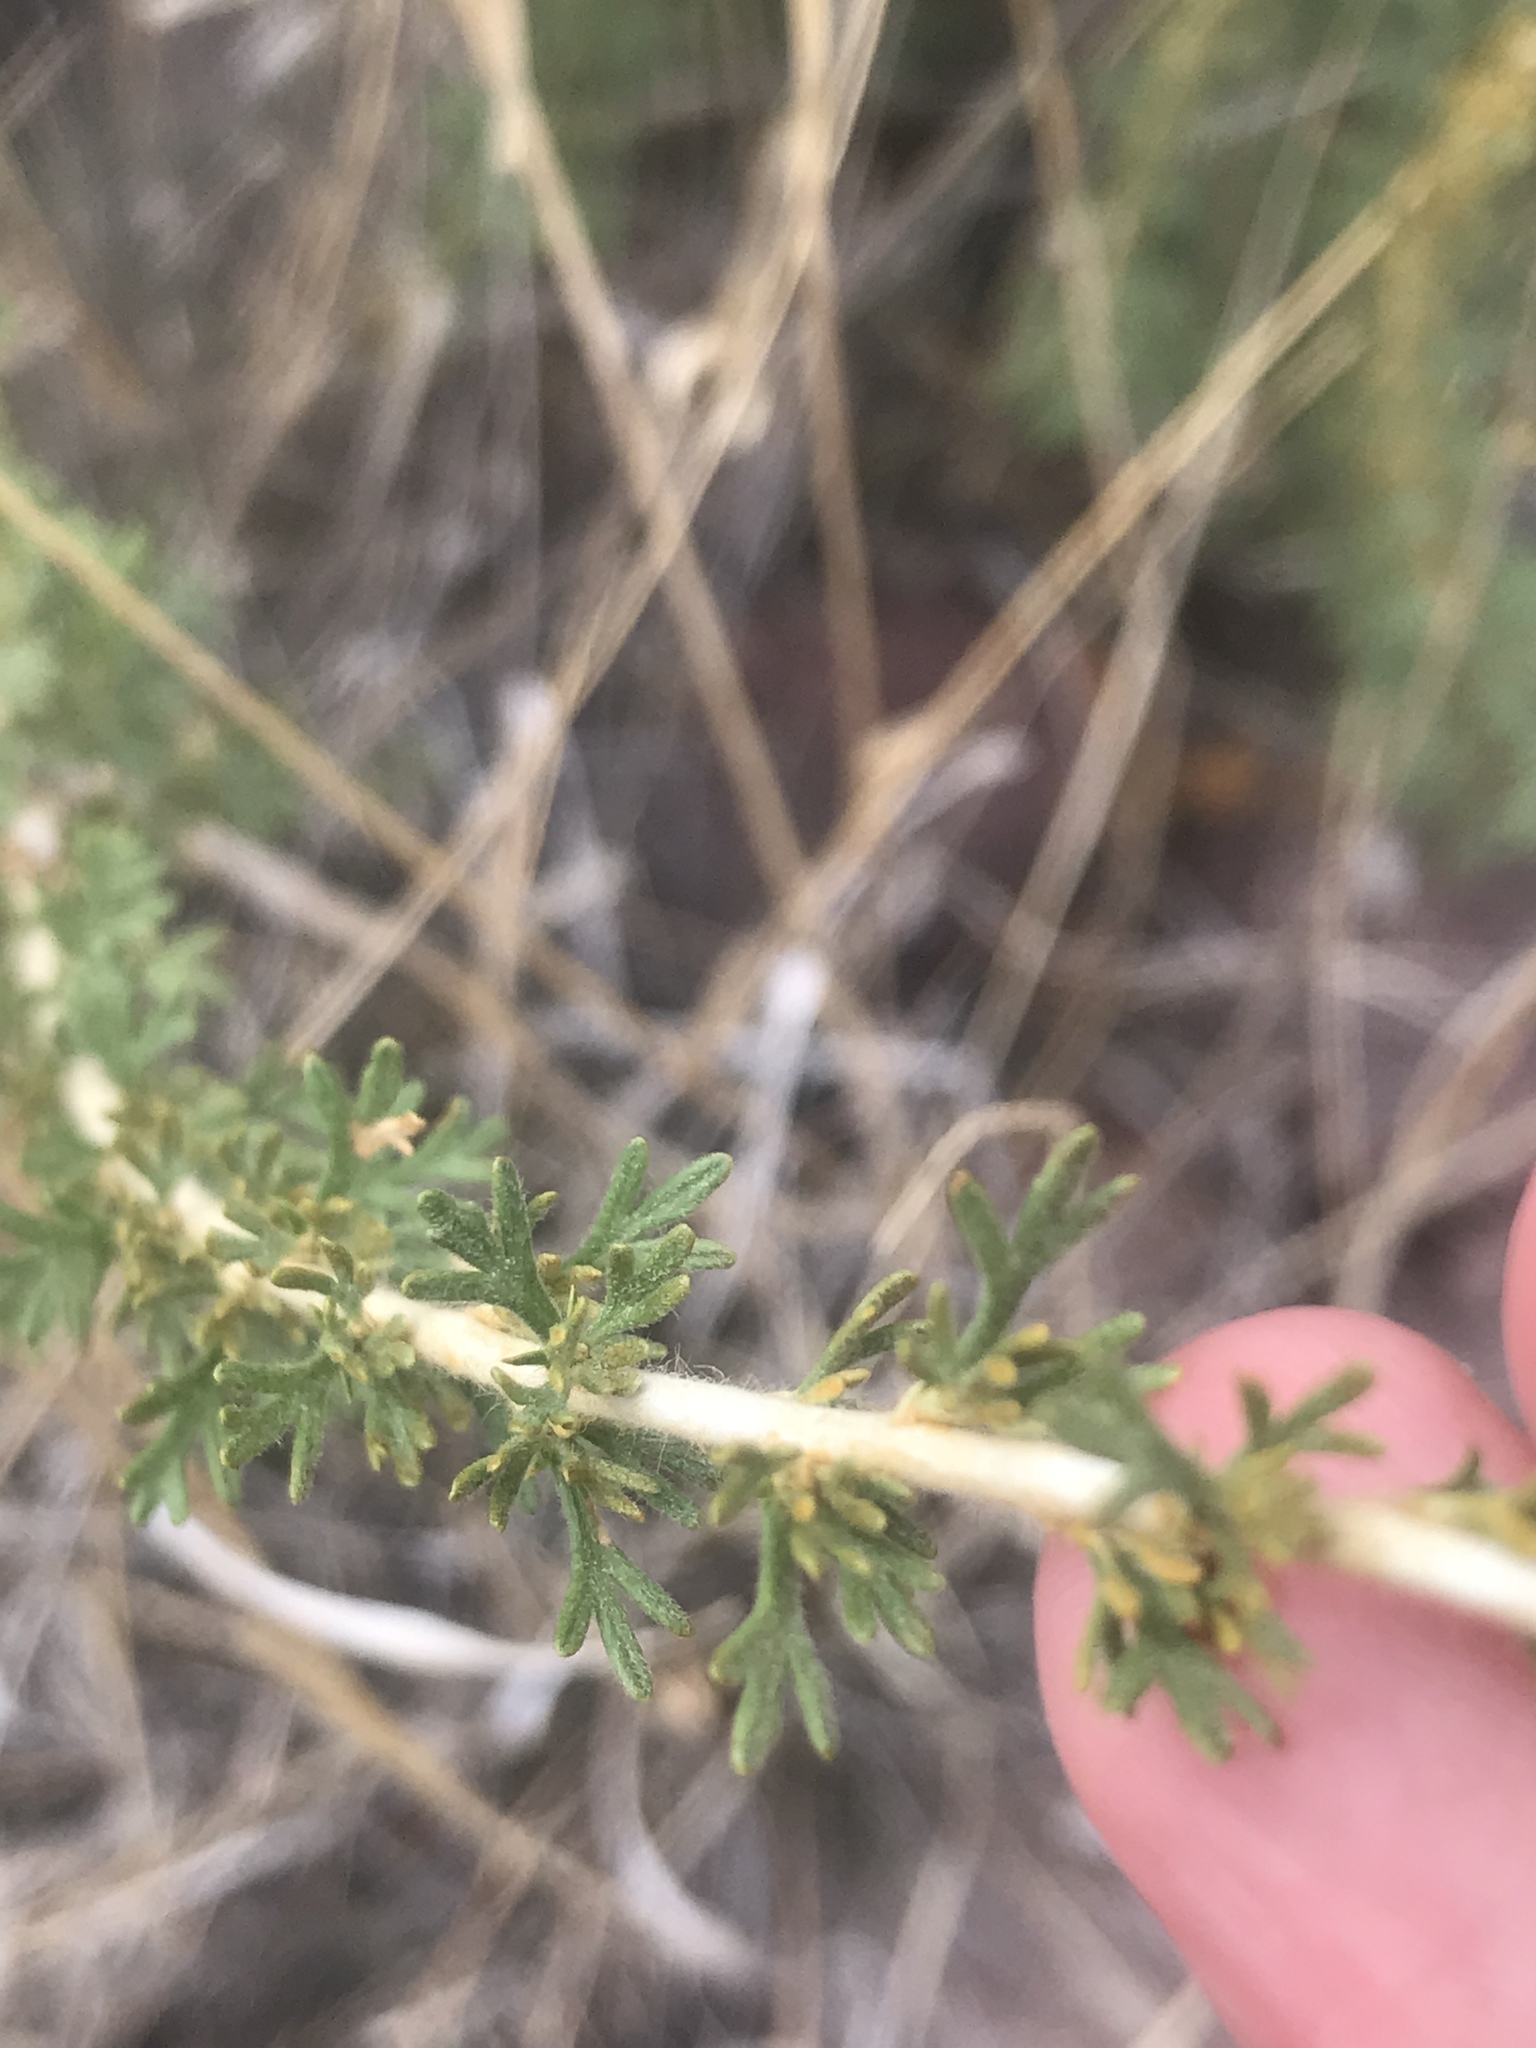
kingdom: Plantae
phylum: Tracheophyta
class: Magnoliopsida
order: Rosales
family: Rosaceae
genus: Fallugia
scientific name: Fallugia paradoxa
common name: Apache-plume
